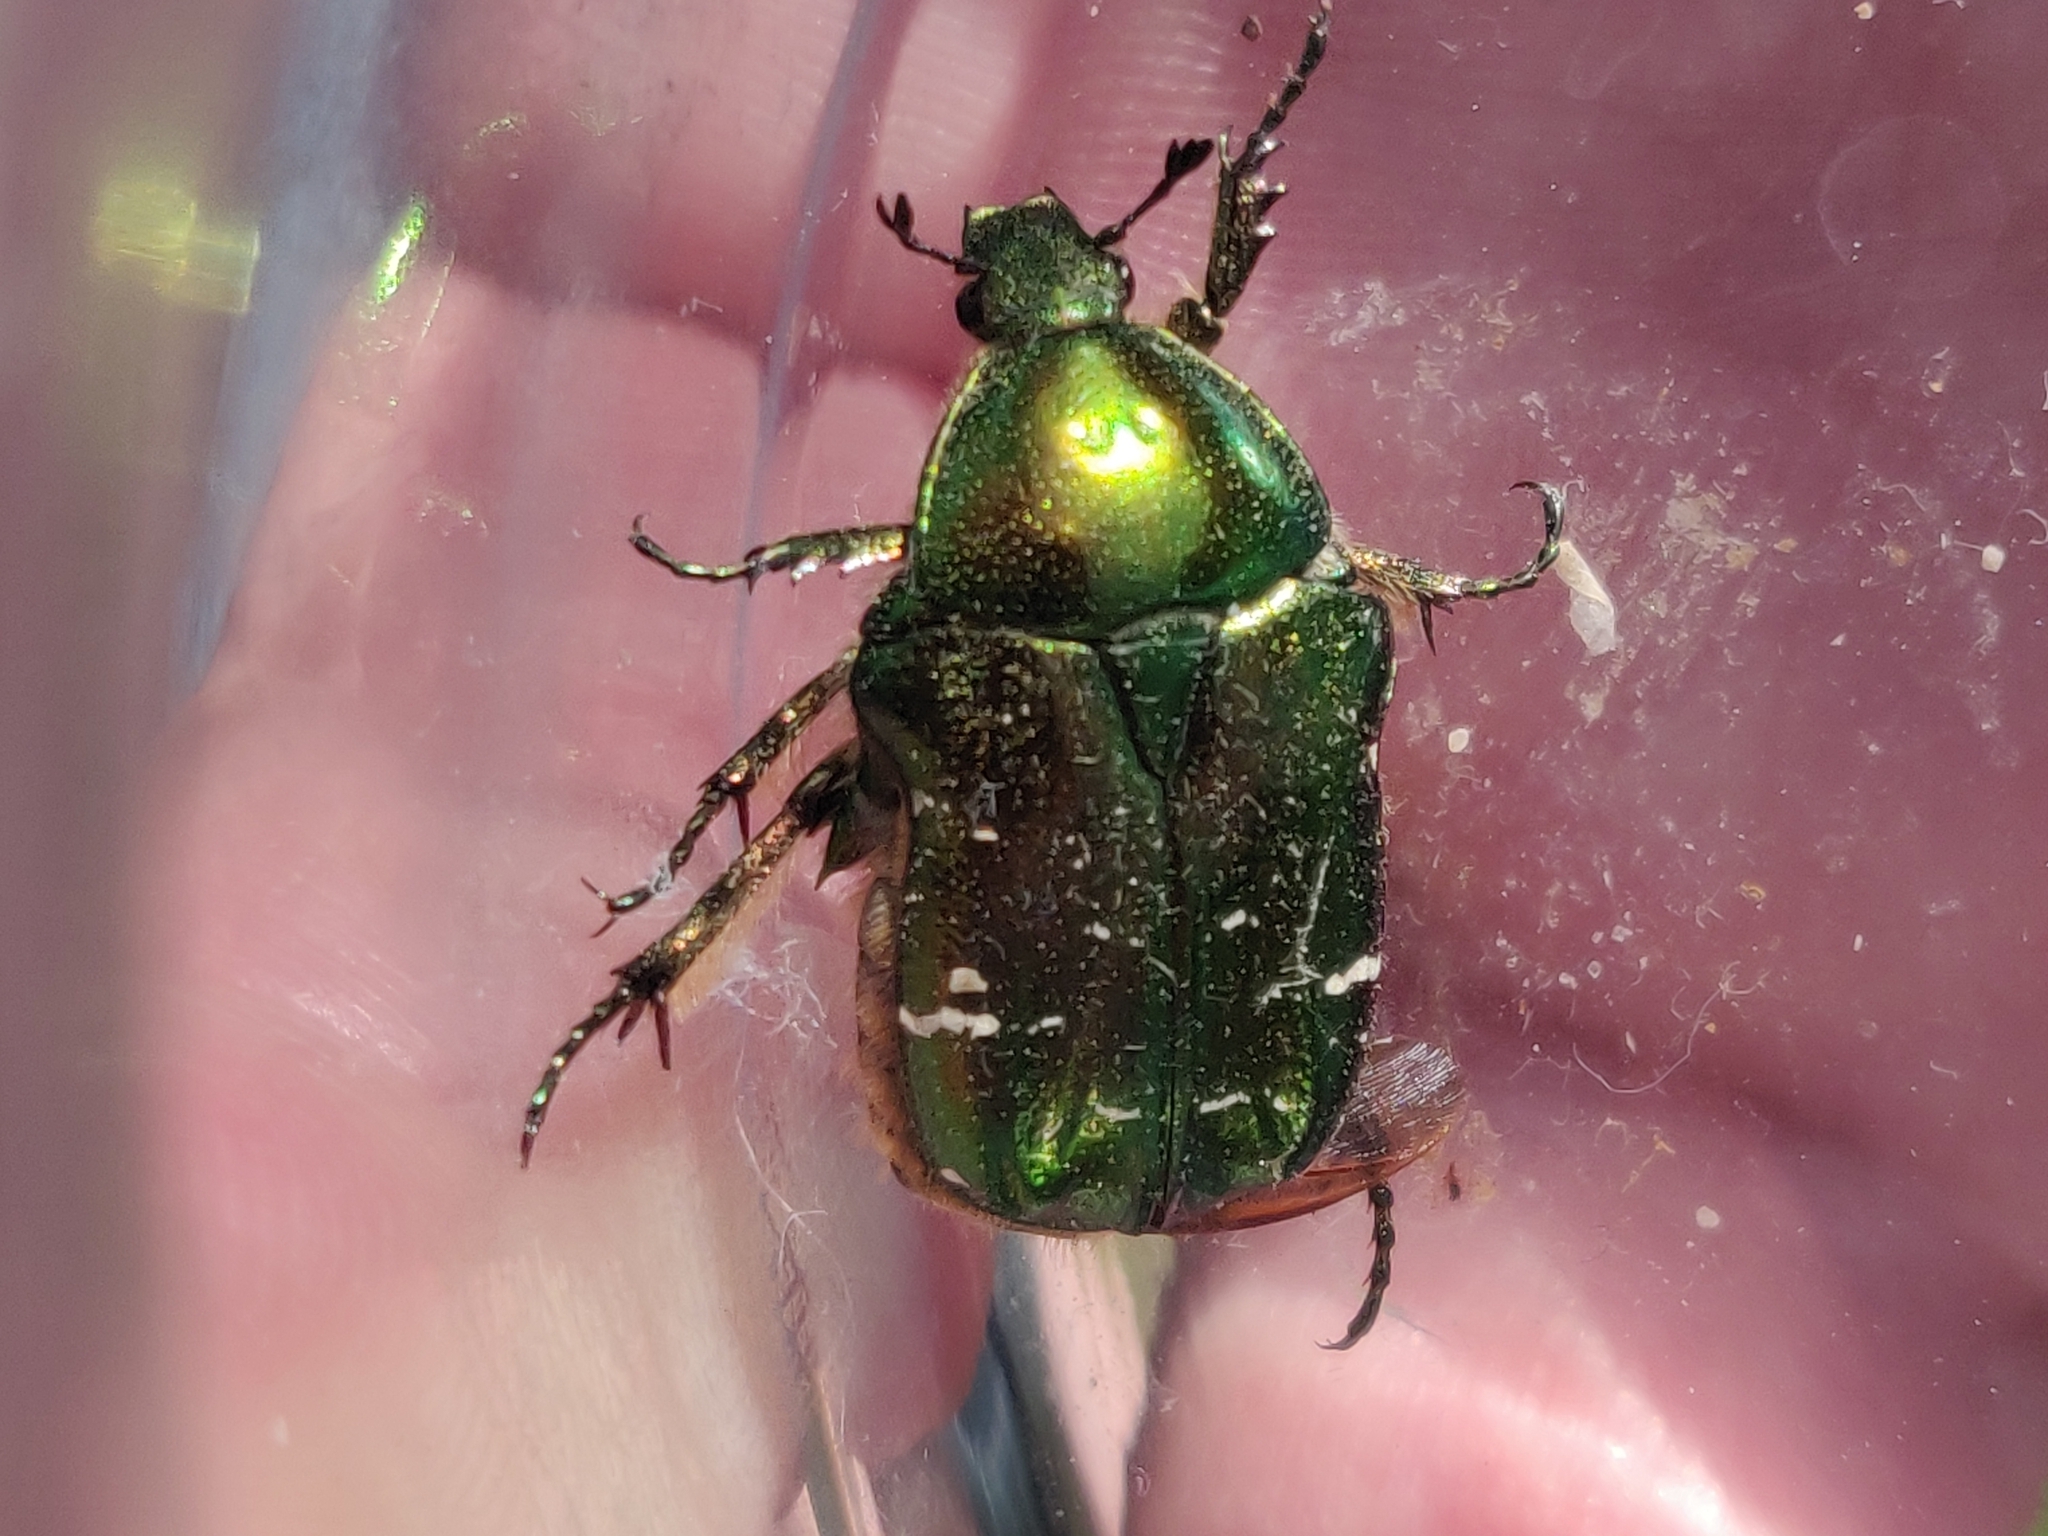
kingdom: Animalia
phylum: Arthropoda
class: Insecta
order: Coleoptera
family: Scarabaeidae
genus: Cetonia
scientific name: Cetonia aurata
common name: Rose chafer
